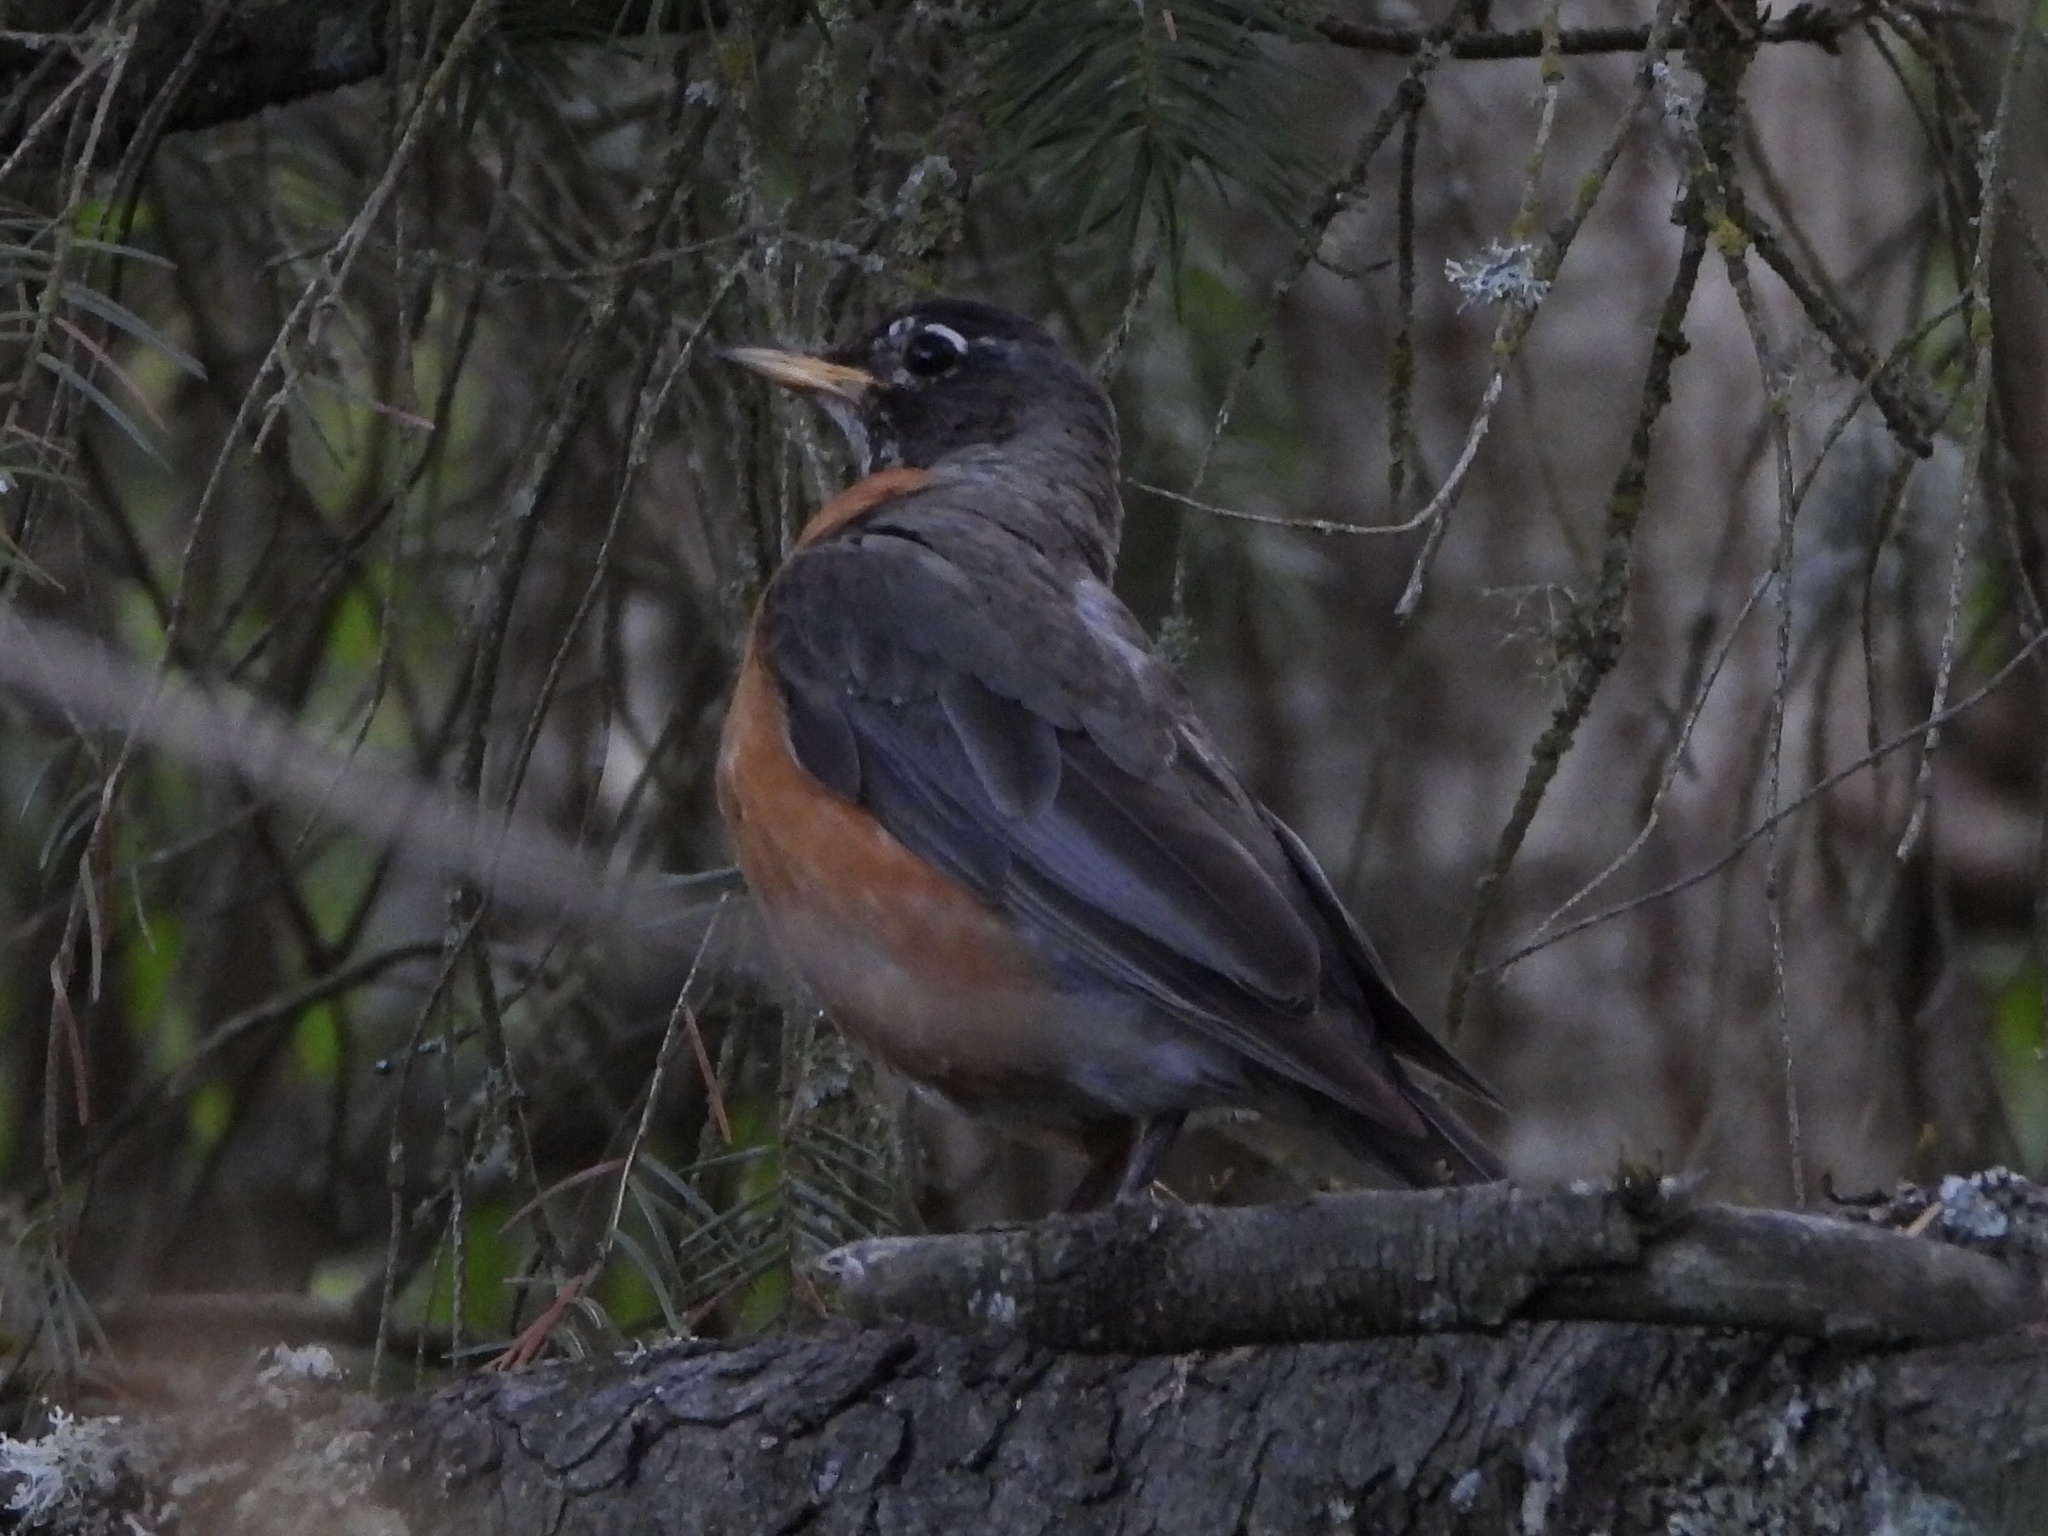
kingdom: Animalia
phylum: Chordata
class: Aves
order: Passeriformes
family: Turdidae
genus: Turdus
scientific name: Turdus migratorius
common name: American robin
